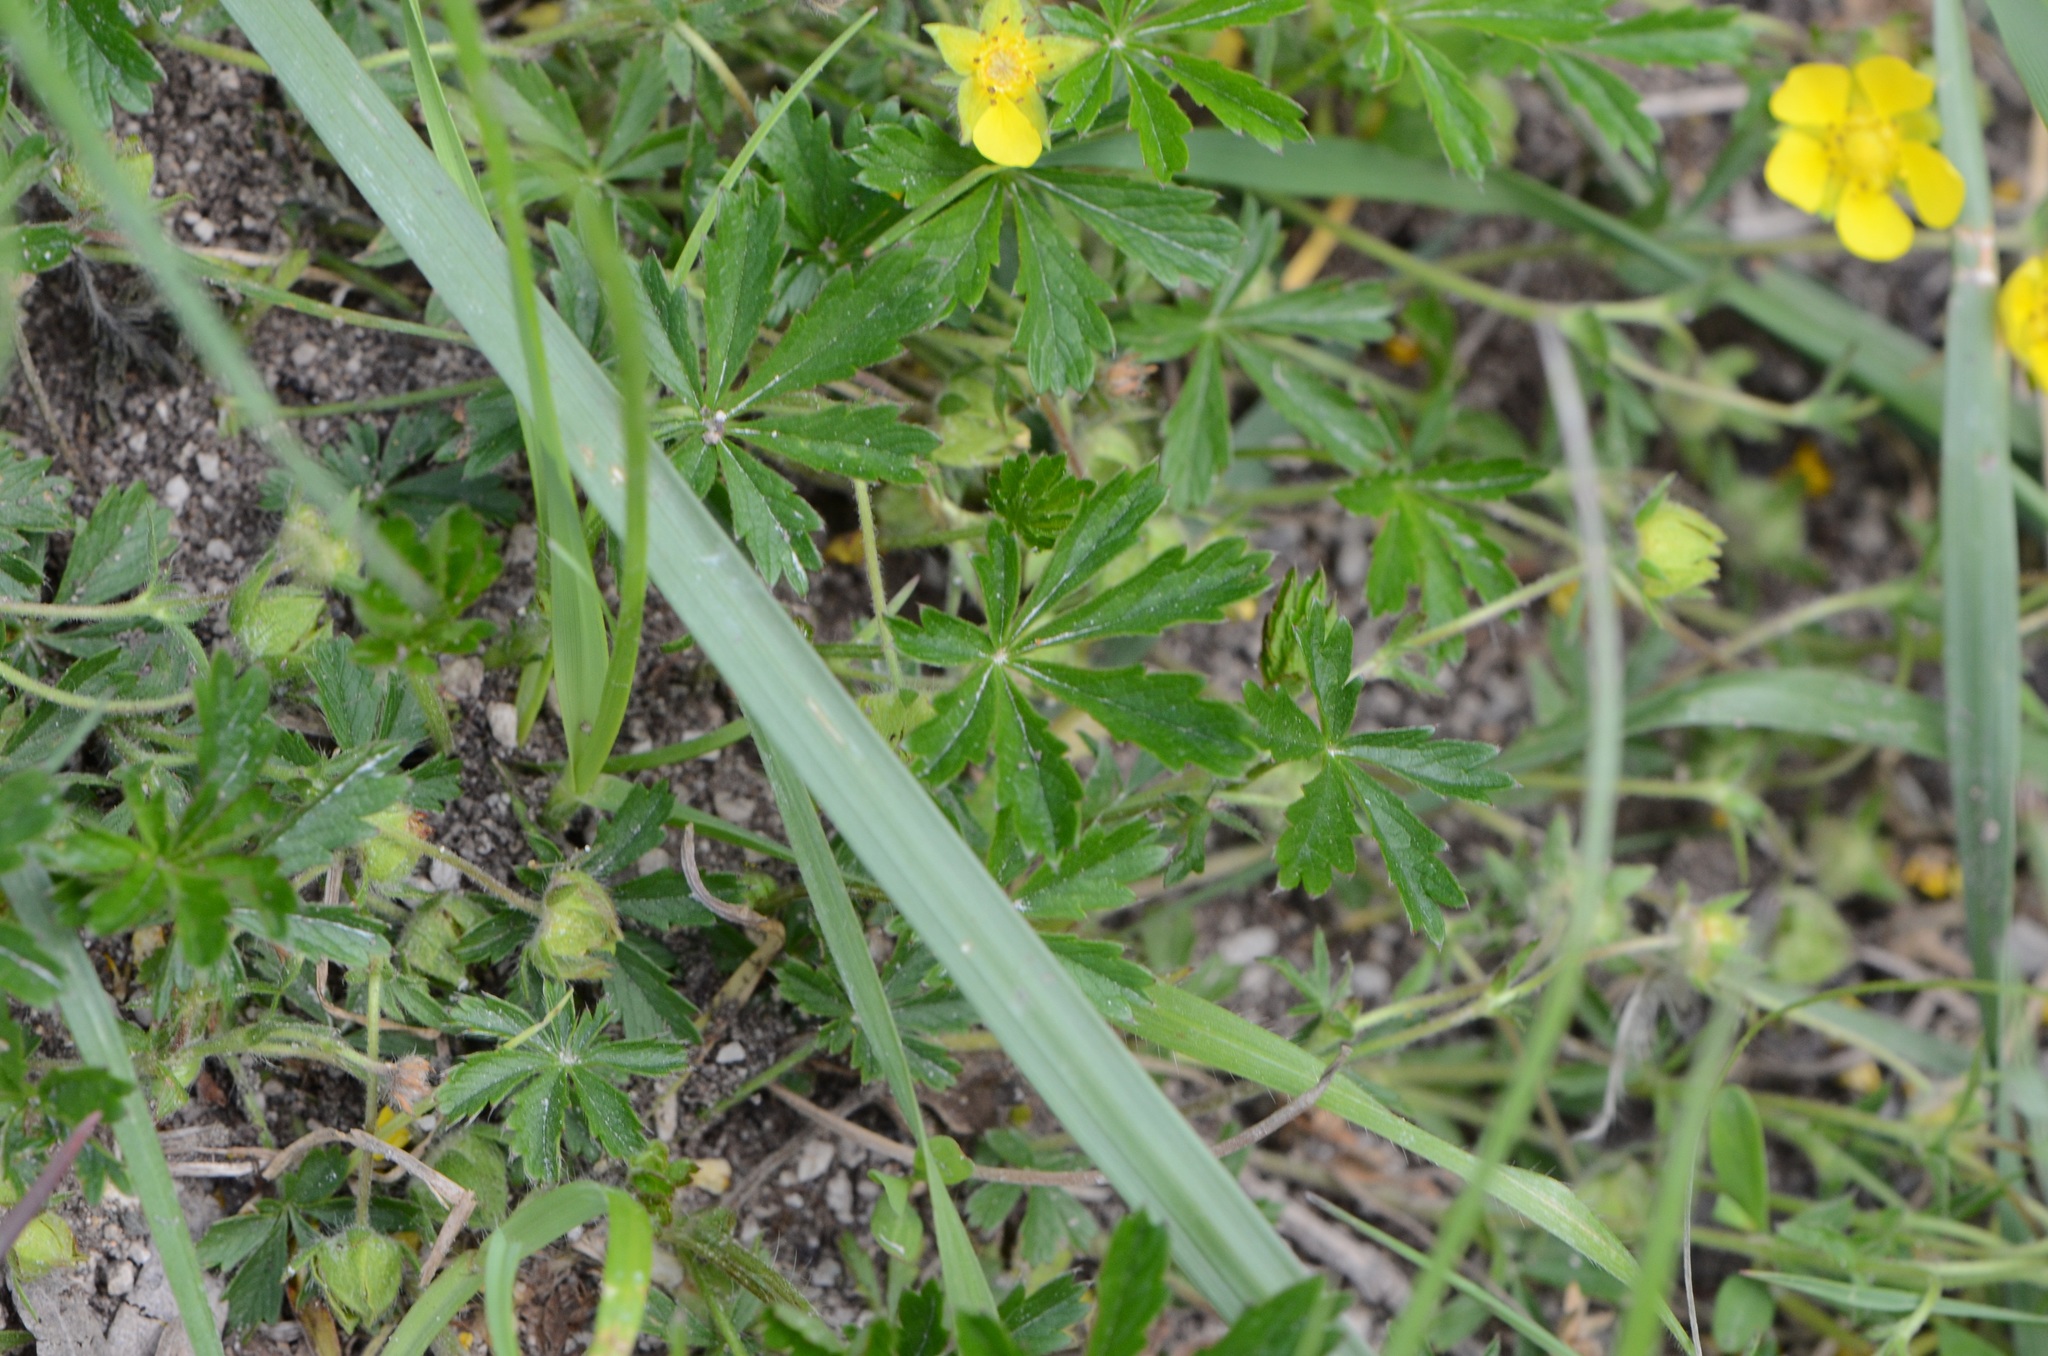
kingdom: Plantae
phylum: Tracheophyta
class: Magnoliopsida
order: Rosales
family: Rosaceae
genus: Potentilla
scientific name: Potentilla heptaphylla
